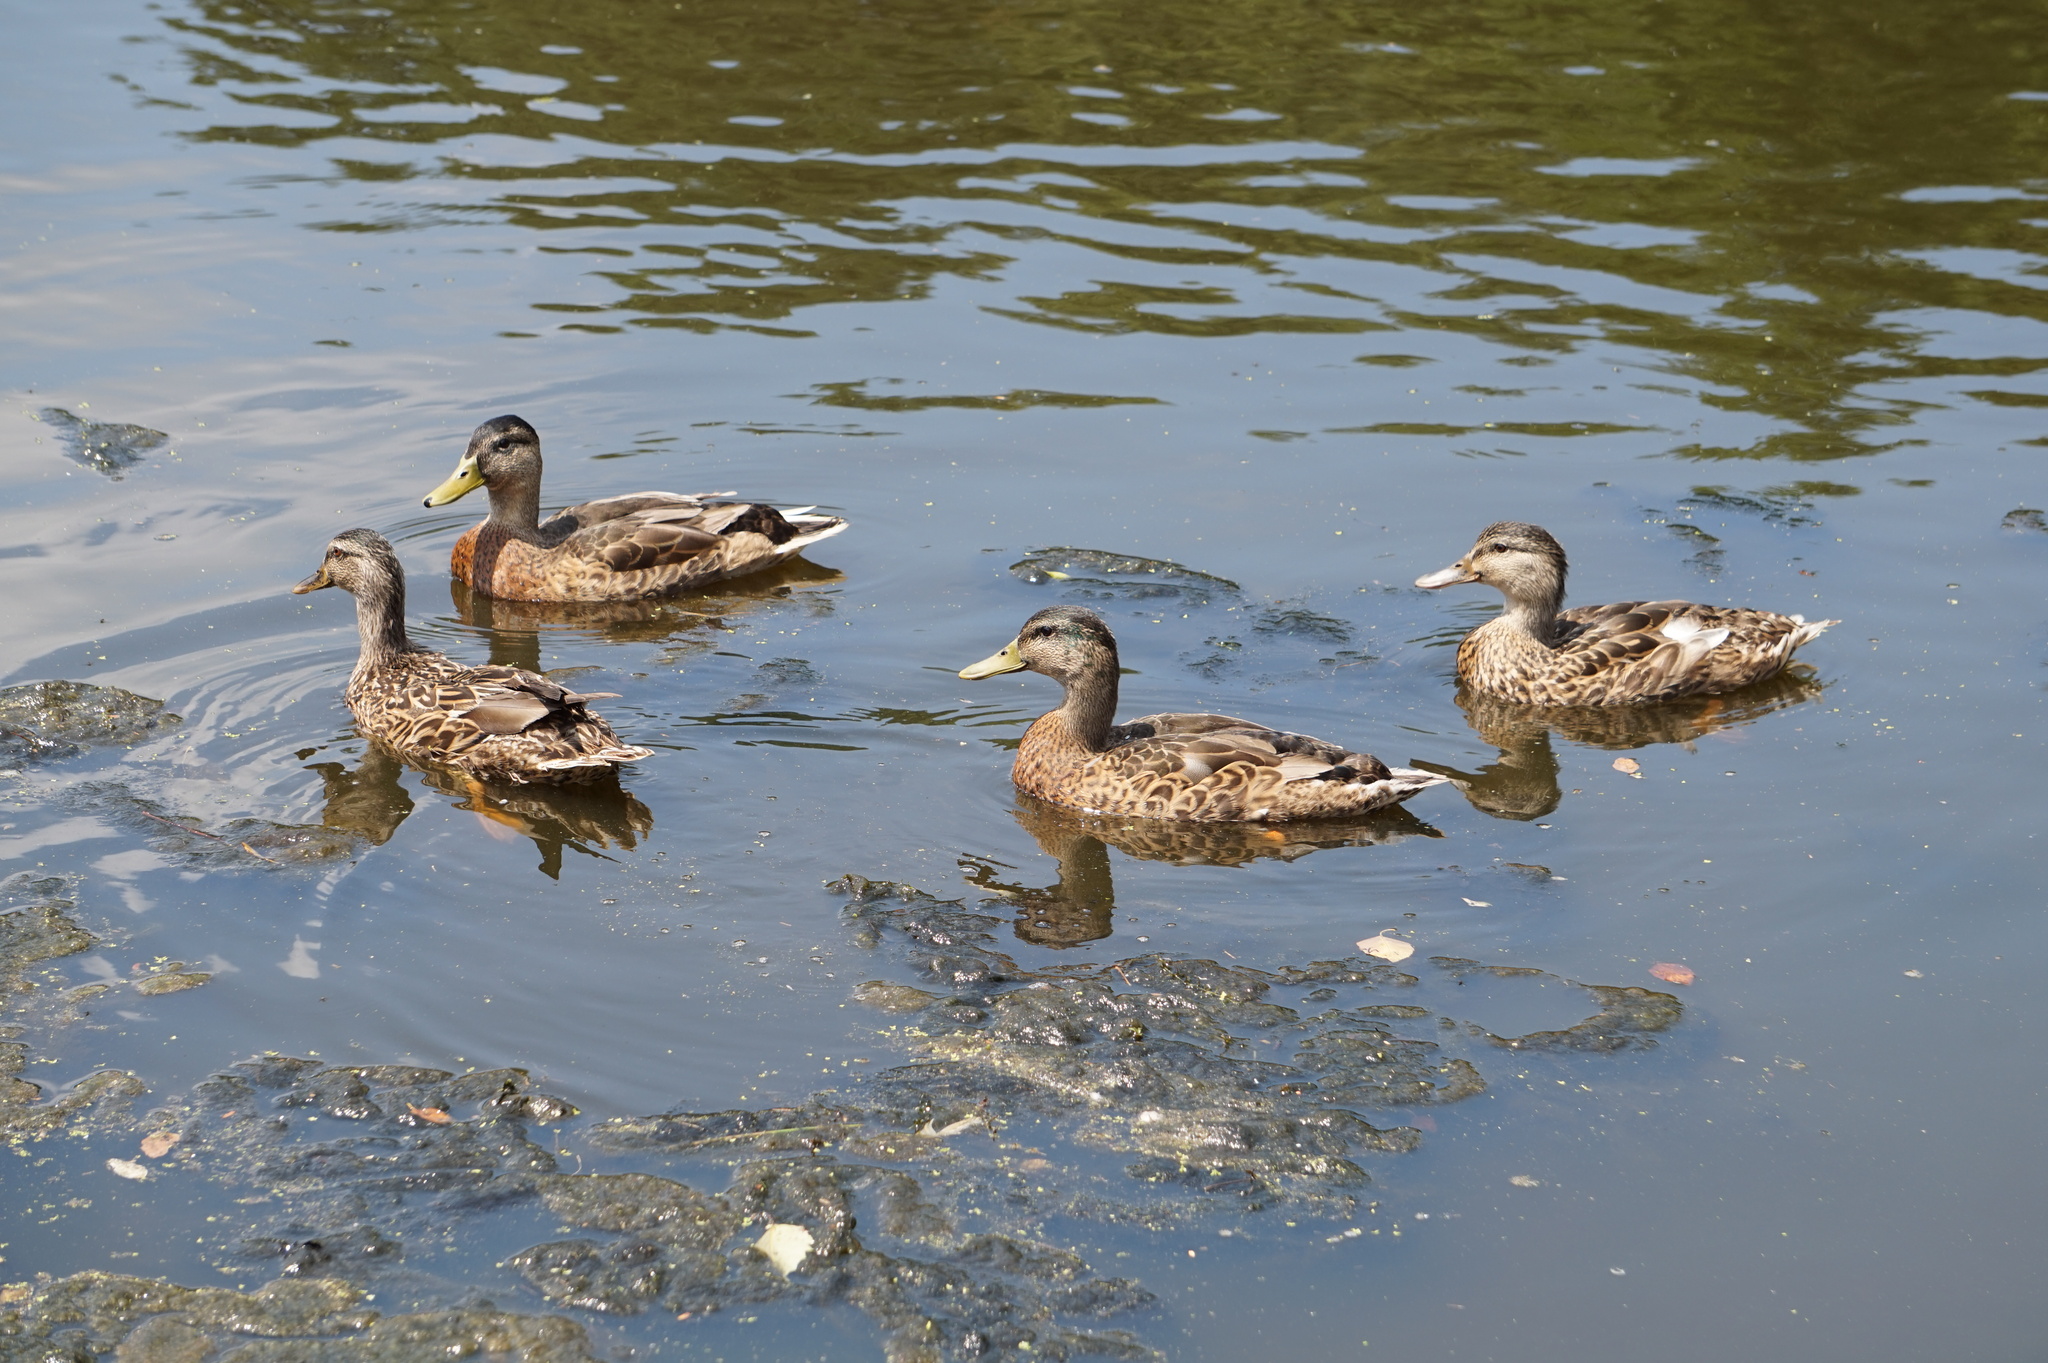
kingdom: Animalia
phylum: Chordata
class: Aves
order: Anseriformes
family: Anatidae
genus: Anas
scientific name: Anas platyrhynchos
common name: Mallard
